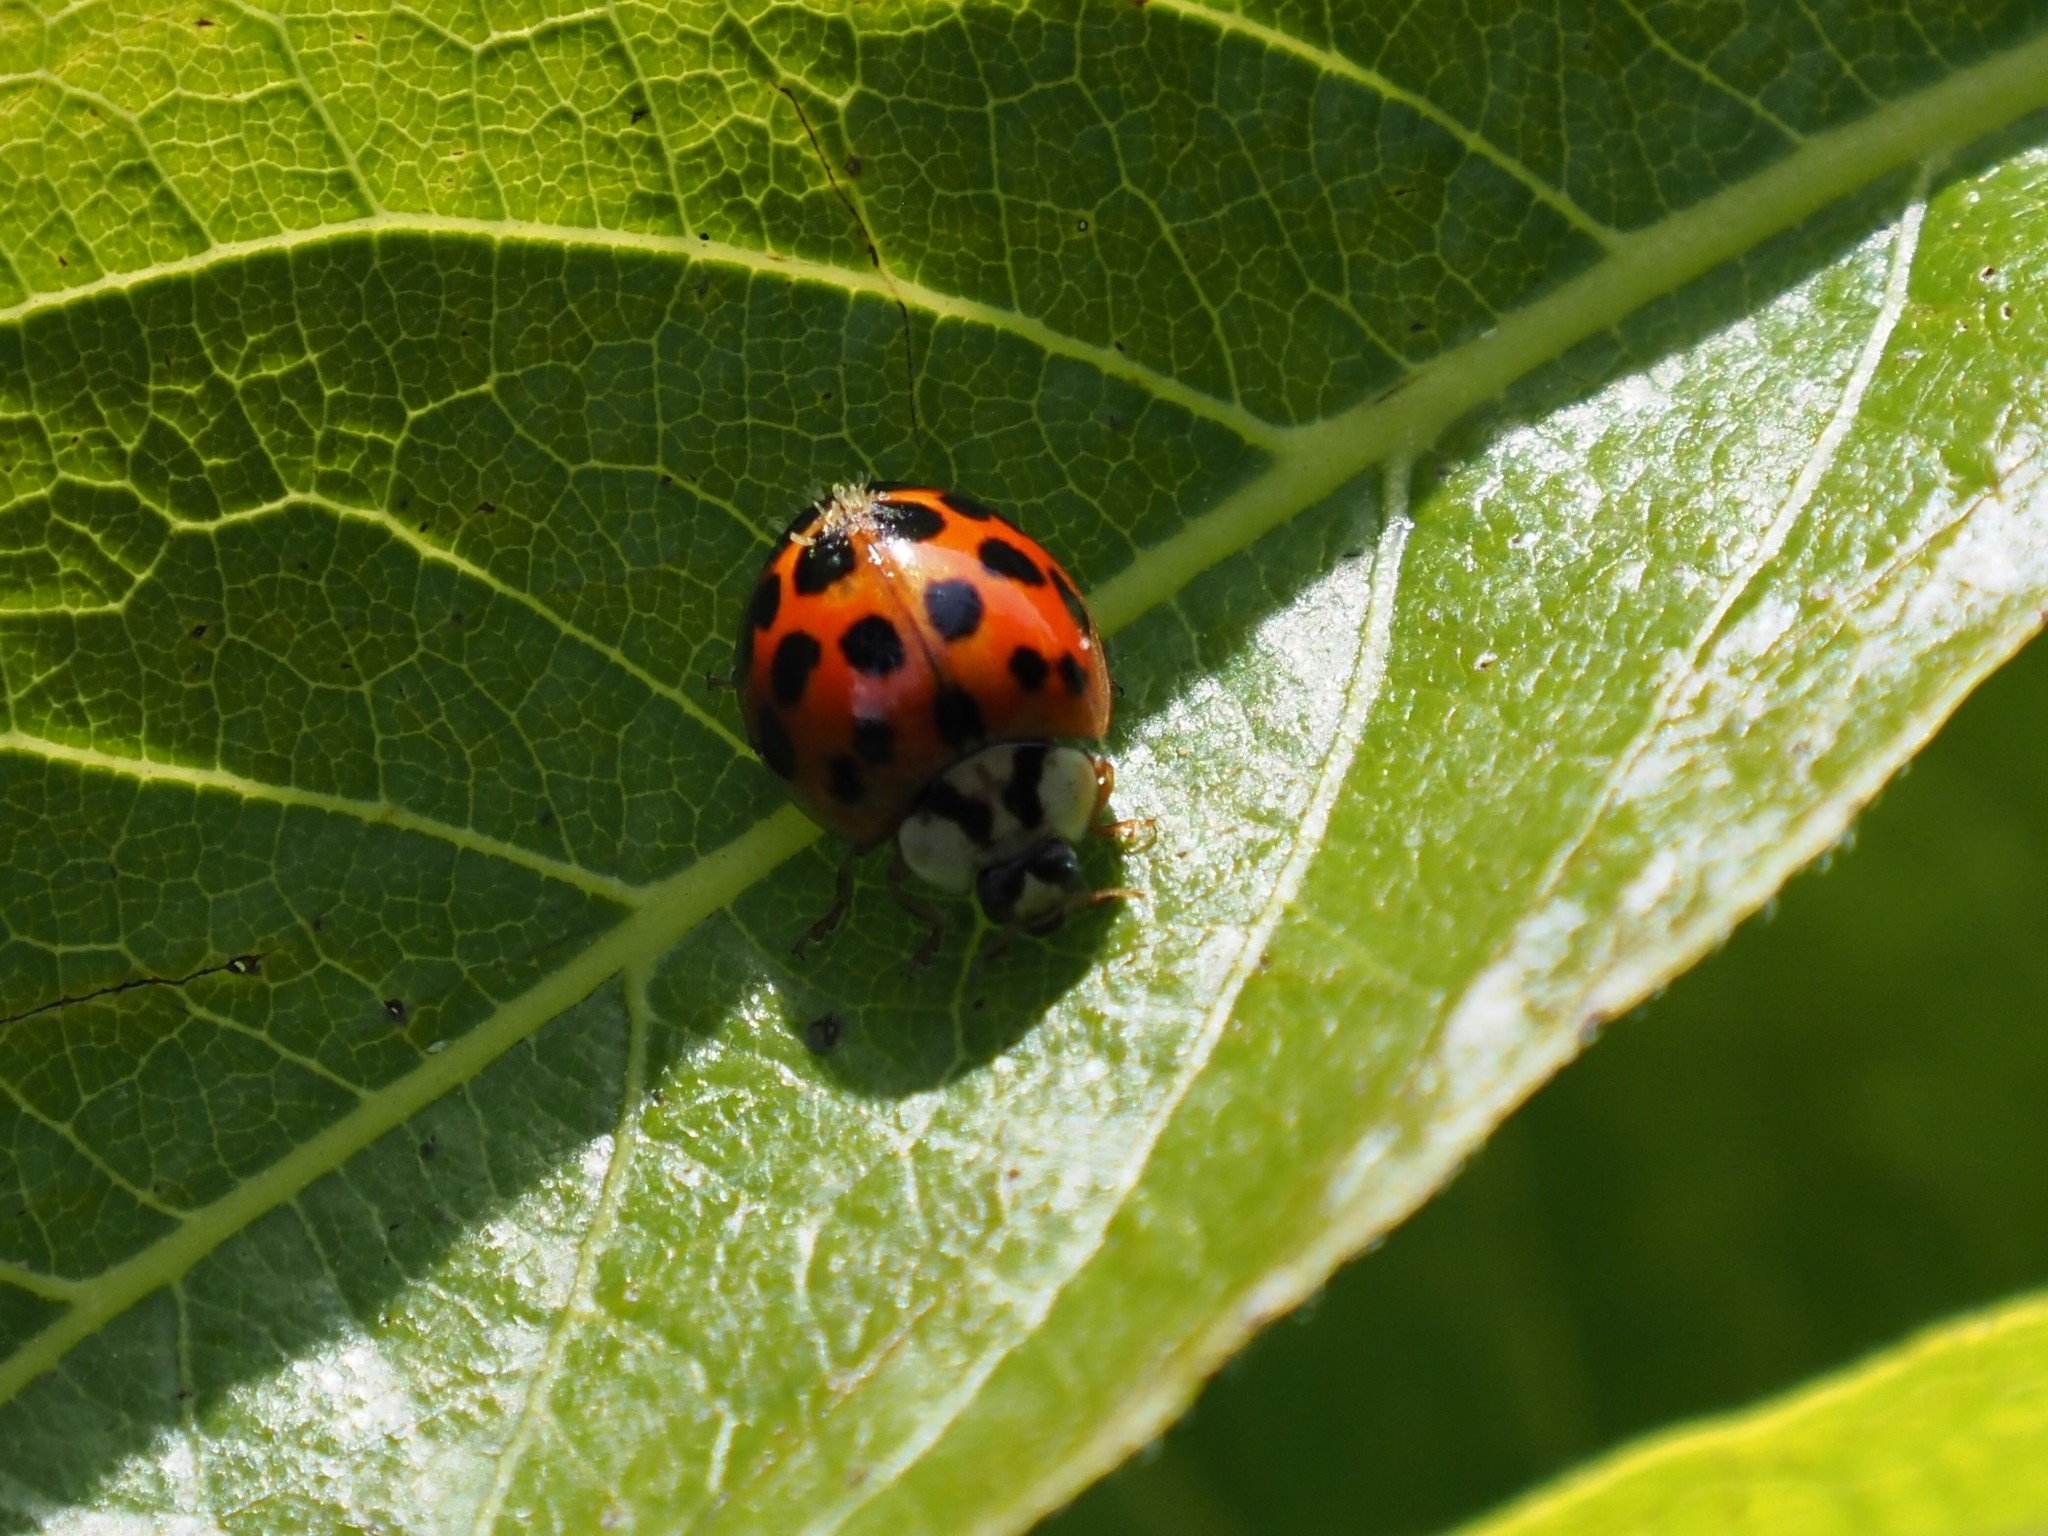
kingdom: Animalia
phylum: Arthropoda
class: Insecta
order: Coleoptera
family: Coccinellidae
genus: Harmonia
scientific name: Harmonia axyridis
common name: Harlequin ladybird
